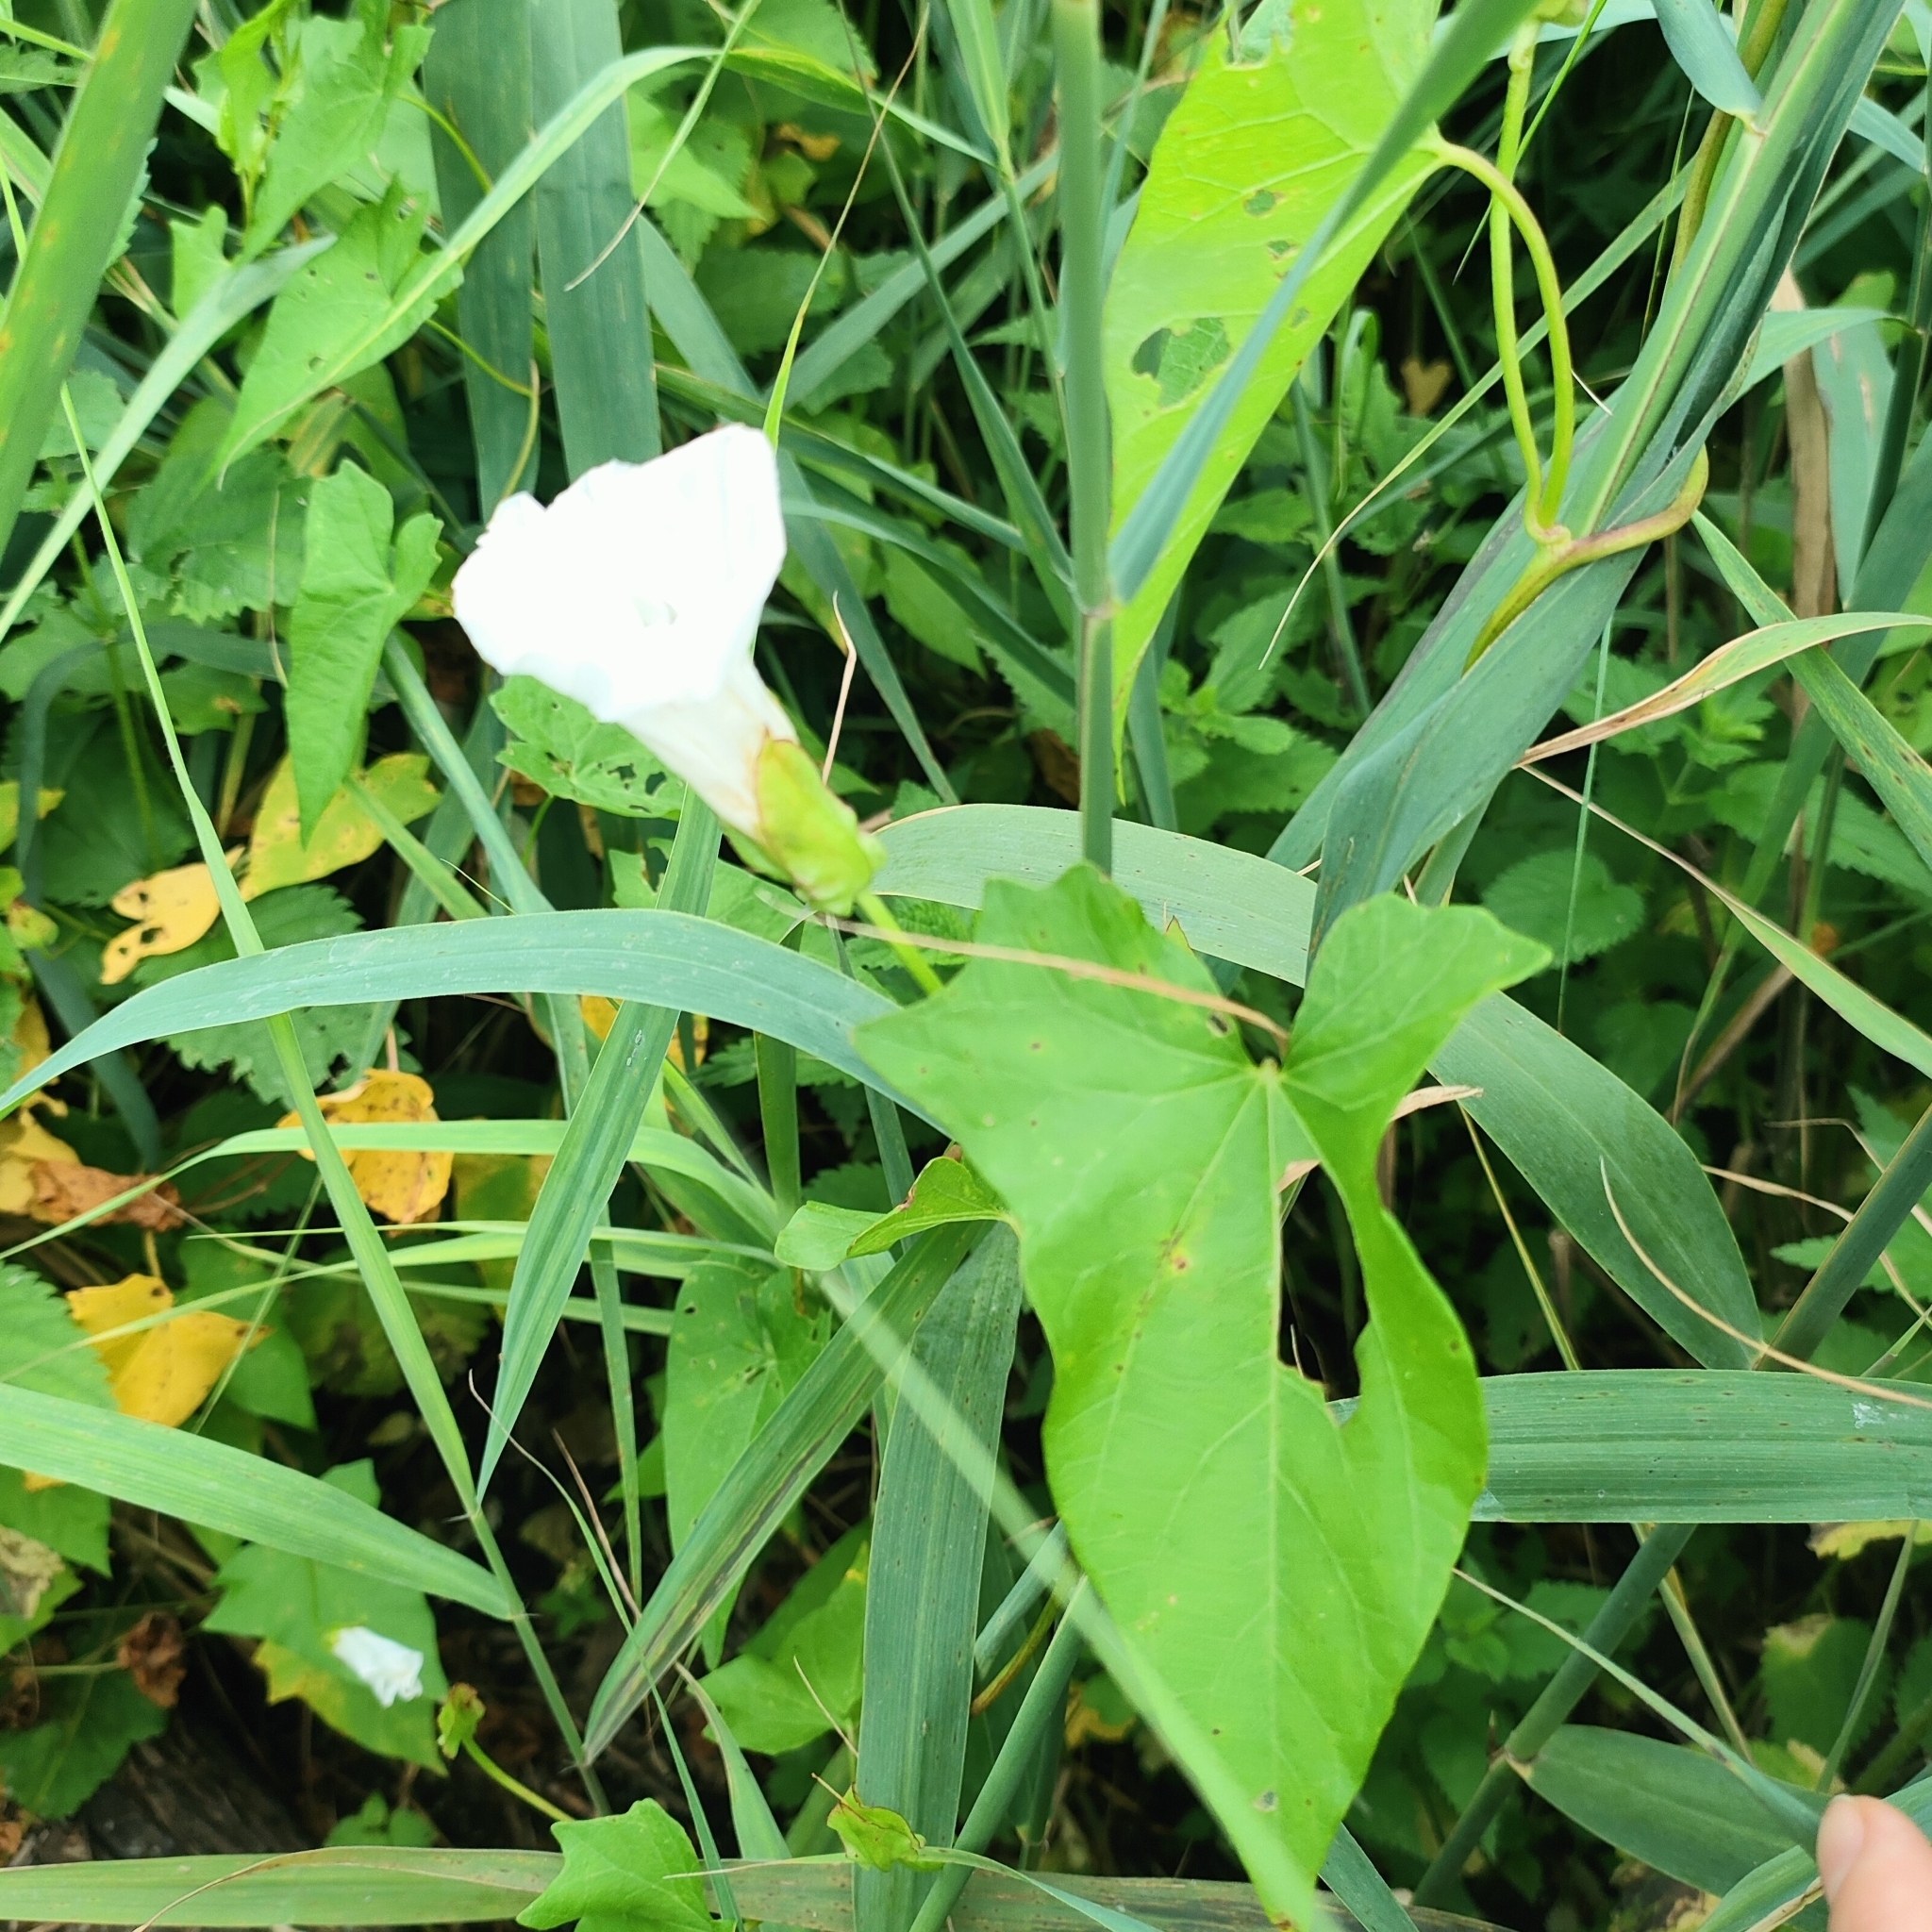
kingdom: Plantae
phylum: Tracheophyta
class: Magnoliopsida
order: Solanales
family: Convolvulaceae
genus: Calystegia
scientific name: Calystegia sepium
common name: Hedge bindweed
